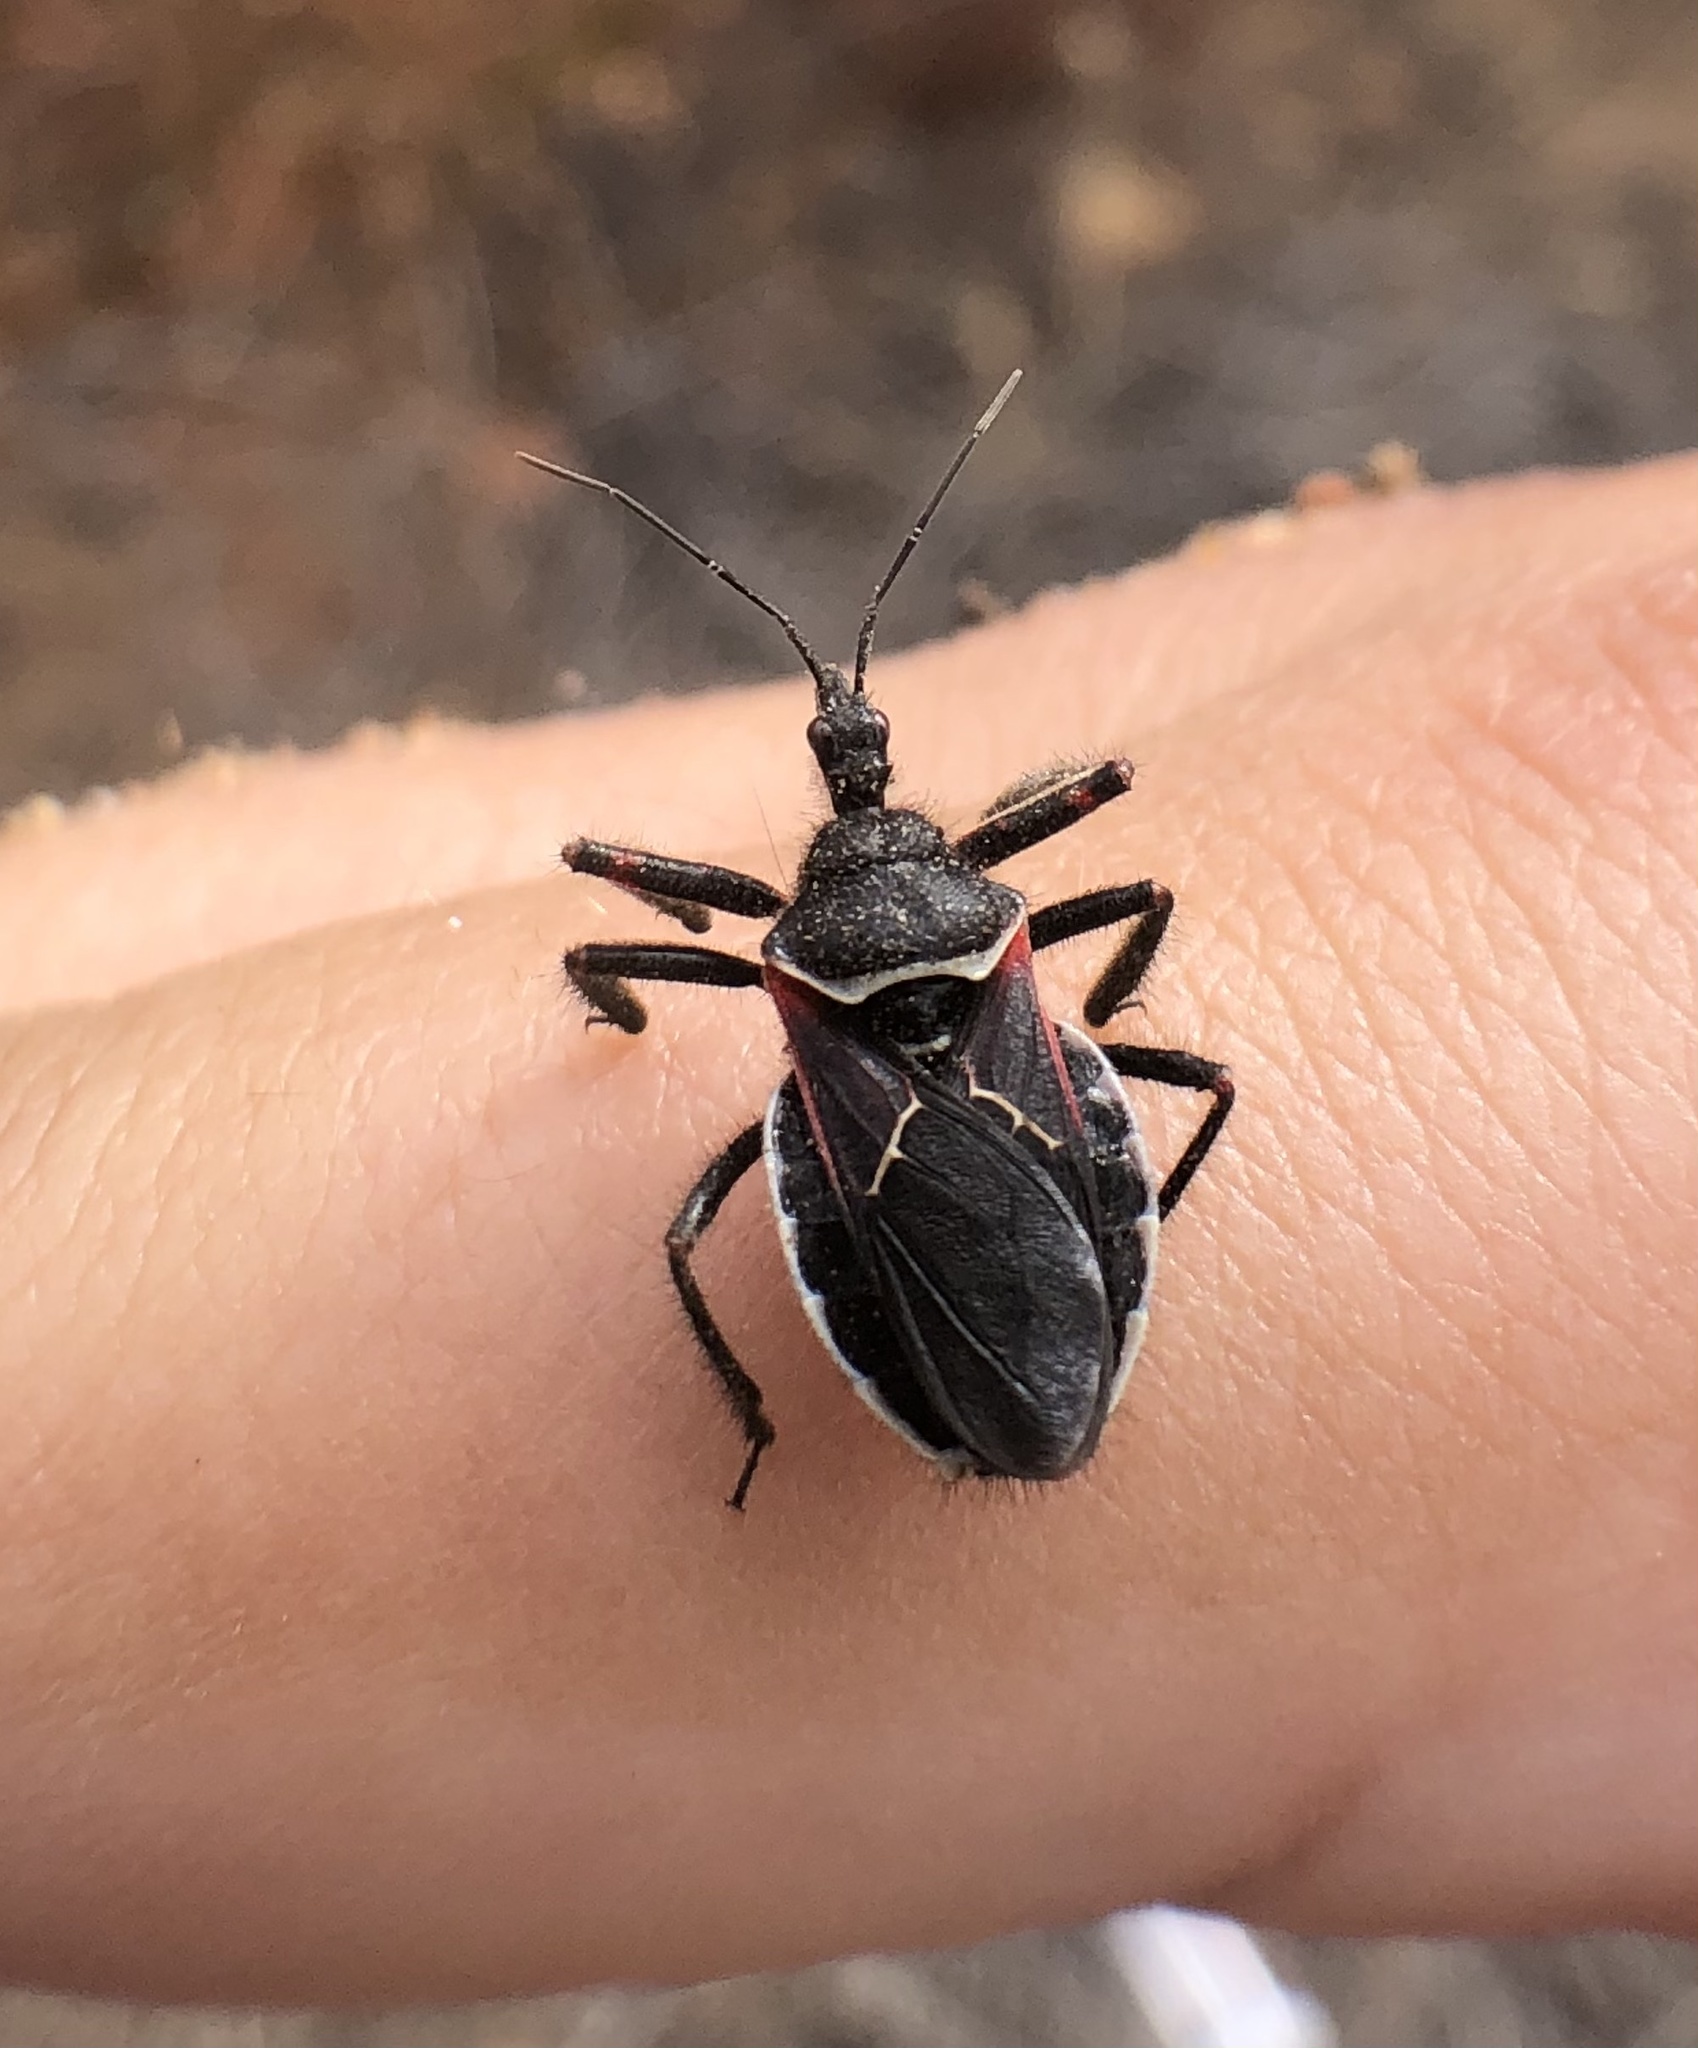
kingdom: Animalia
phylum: Arthropoda
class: Insecta
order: Hemiptera
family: Reduviidae
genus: Apiomerus
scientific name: Apiomerus californicus
